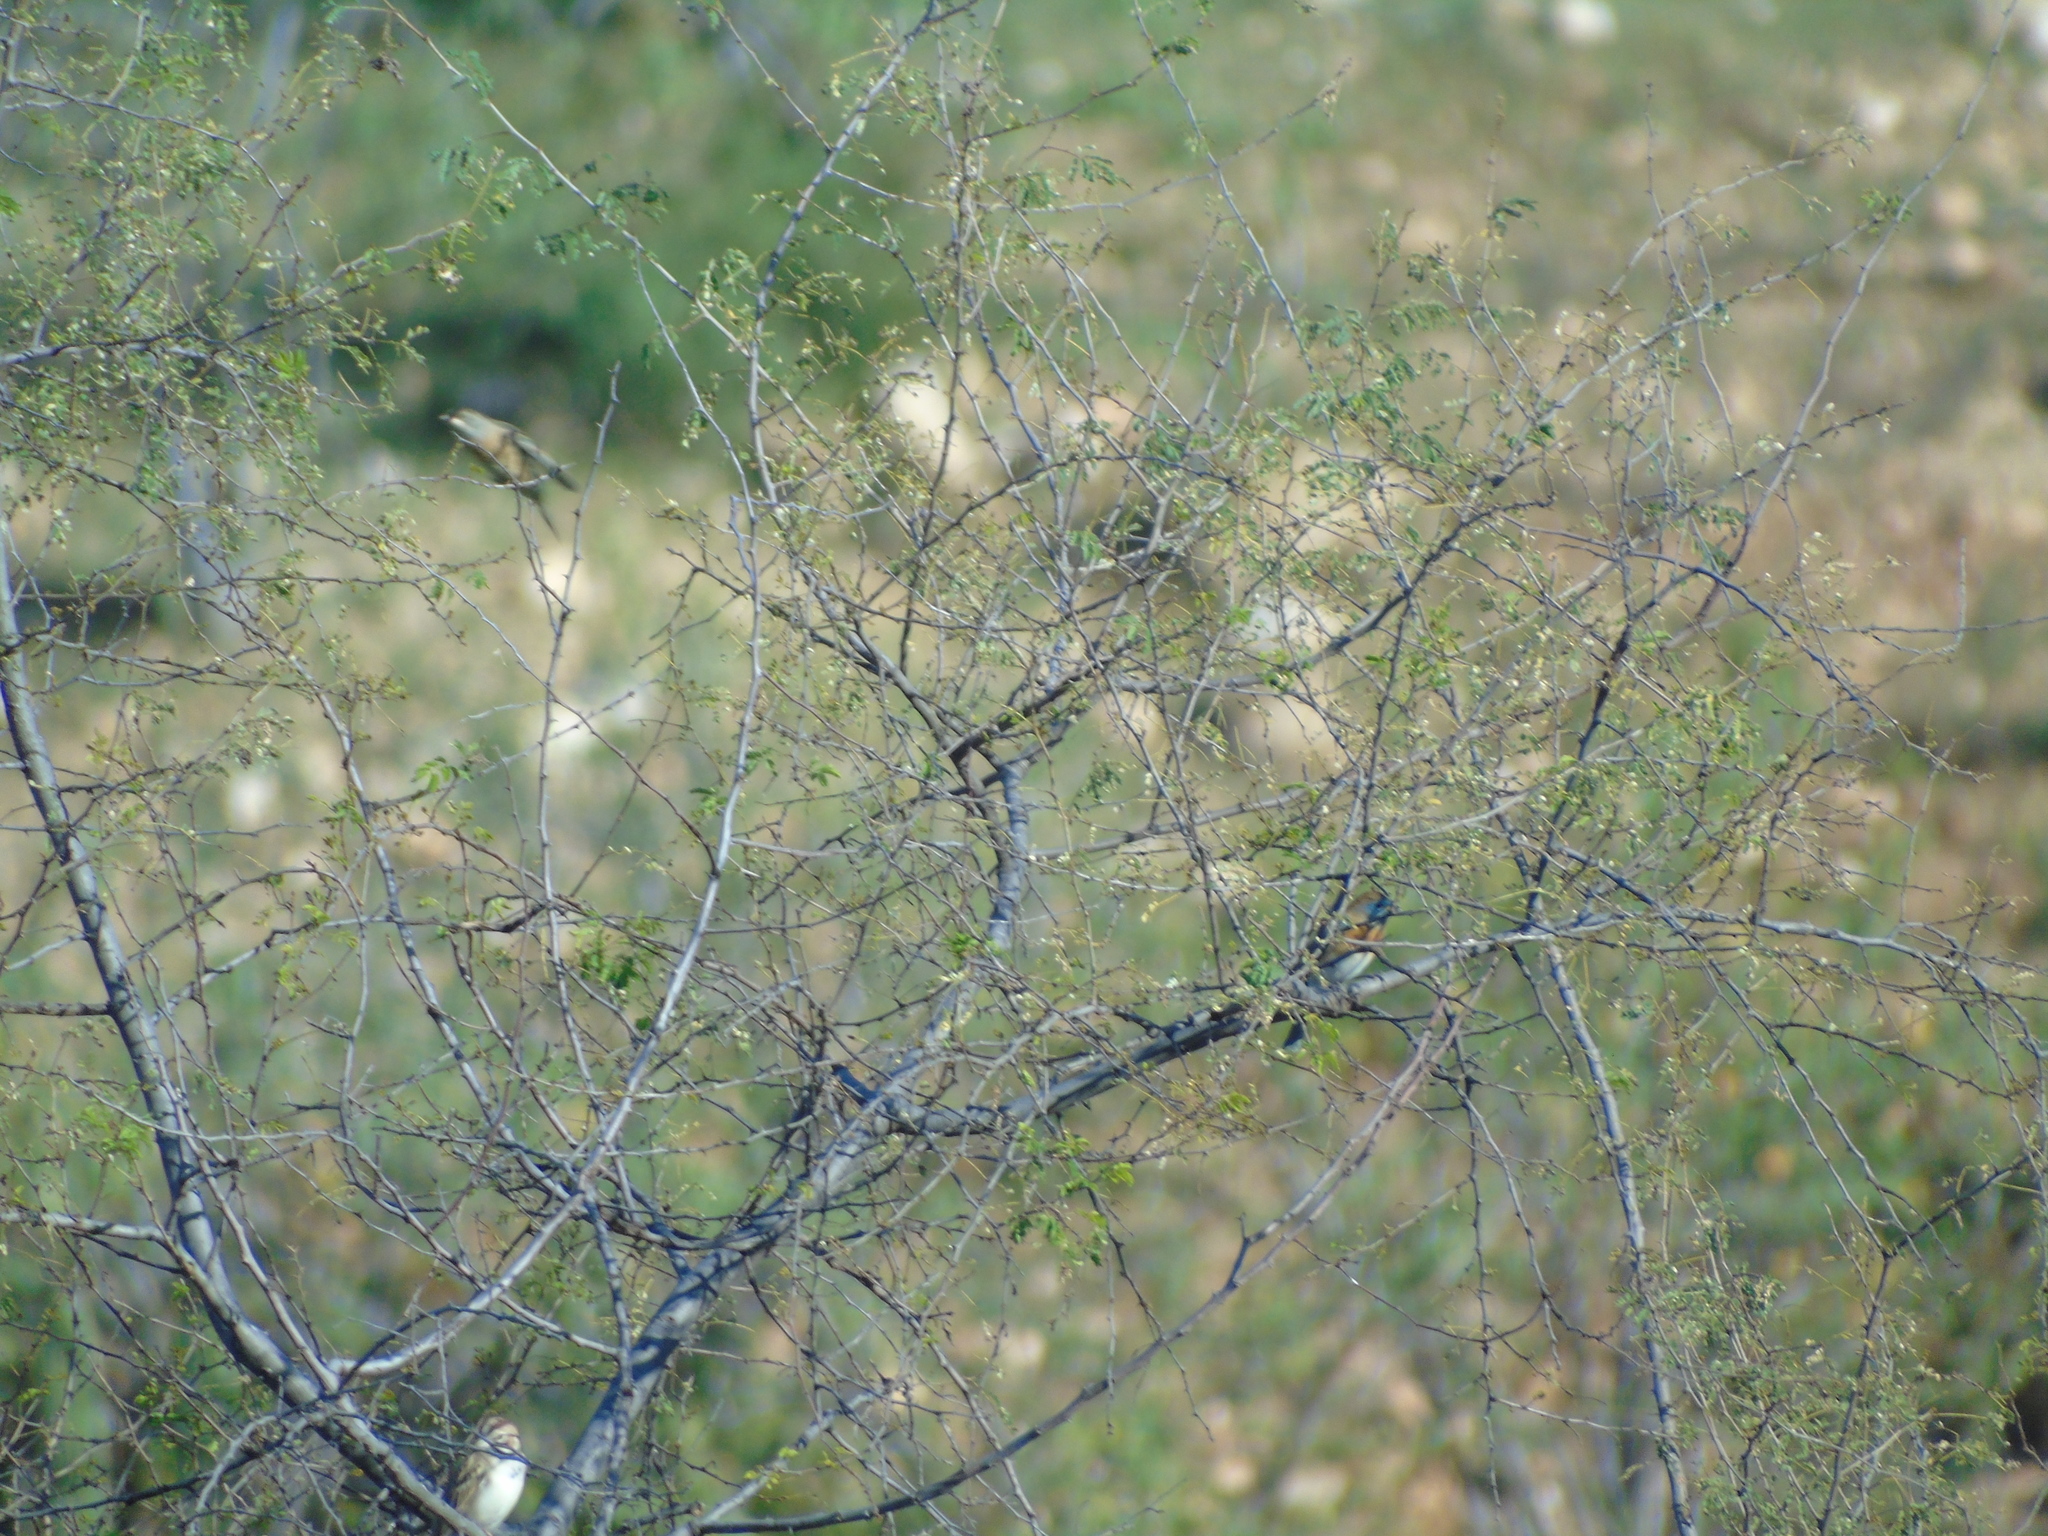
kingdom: Animalia
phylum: Chordata
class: Aves
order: Passeriformes
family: Cardinalidae
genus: Passerina
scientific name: Passerina amoena
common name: Lazuli bunting
